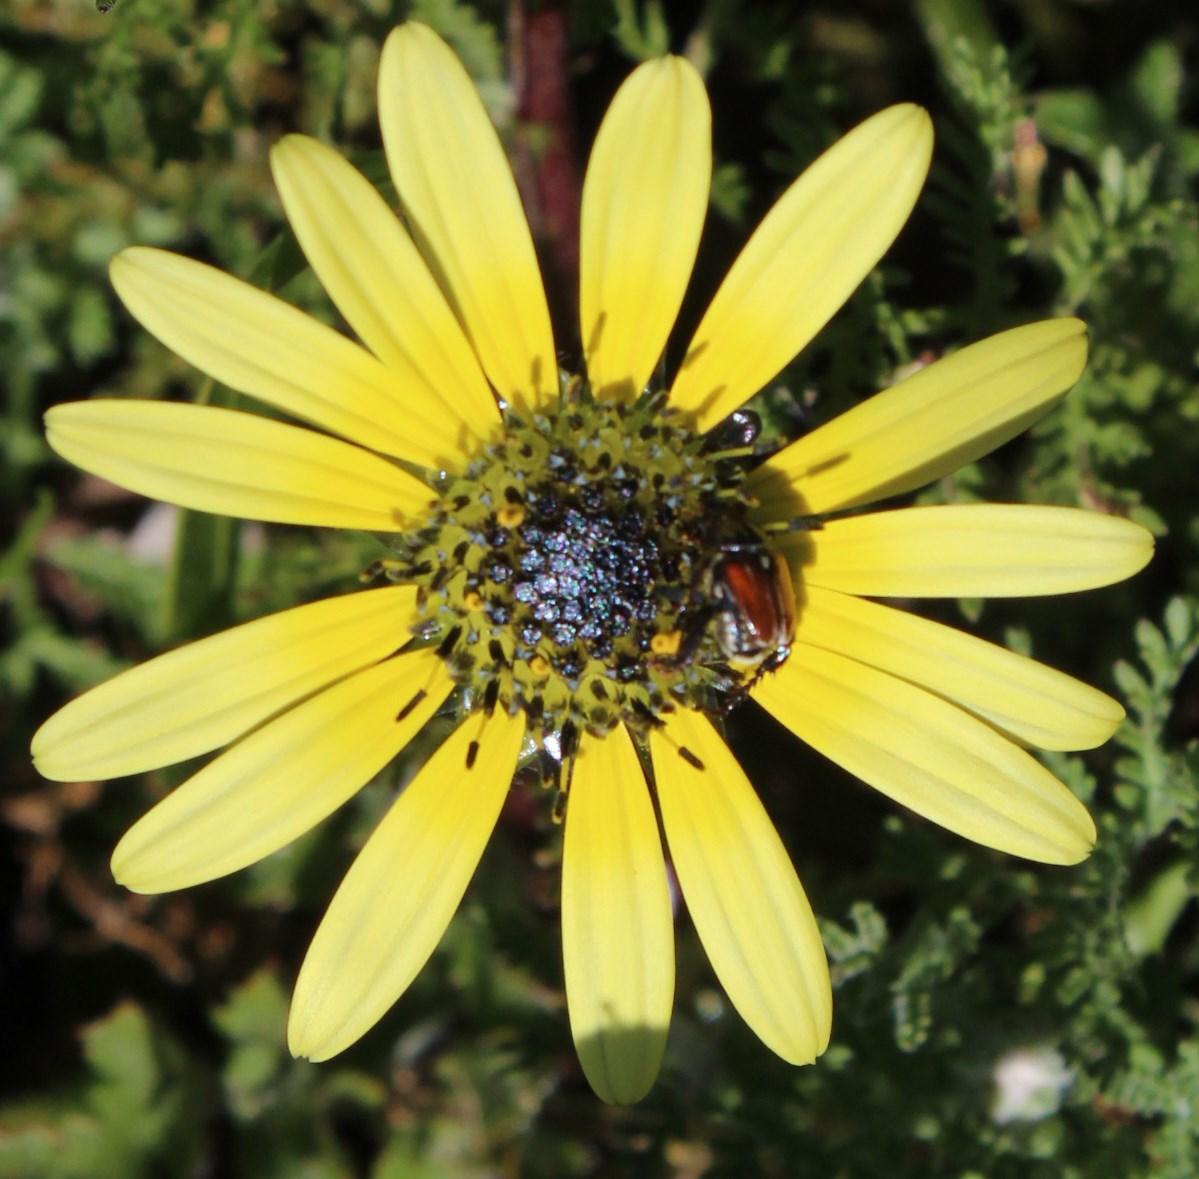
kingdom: Plantae
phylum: Tracheophyta
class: Magnoliopsida
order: Asterales
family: Asteraceae
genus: Arctotheca
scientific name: Arctotheca calendula
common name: Capeweed
